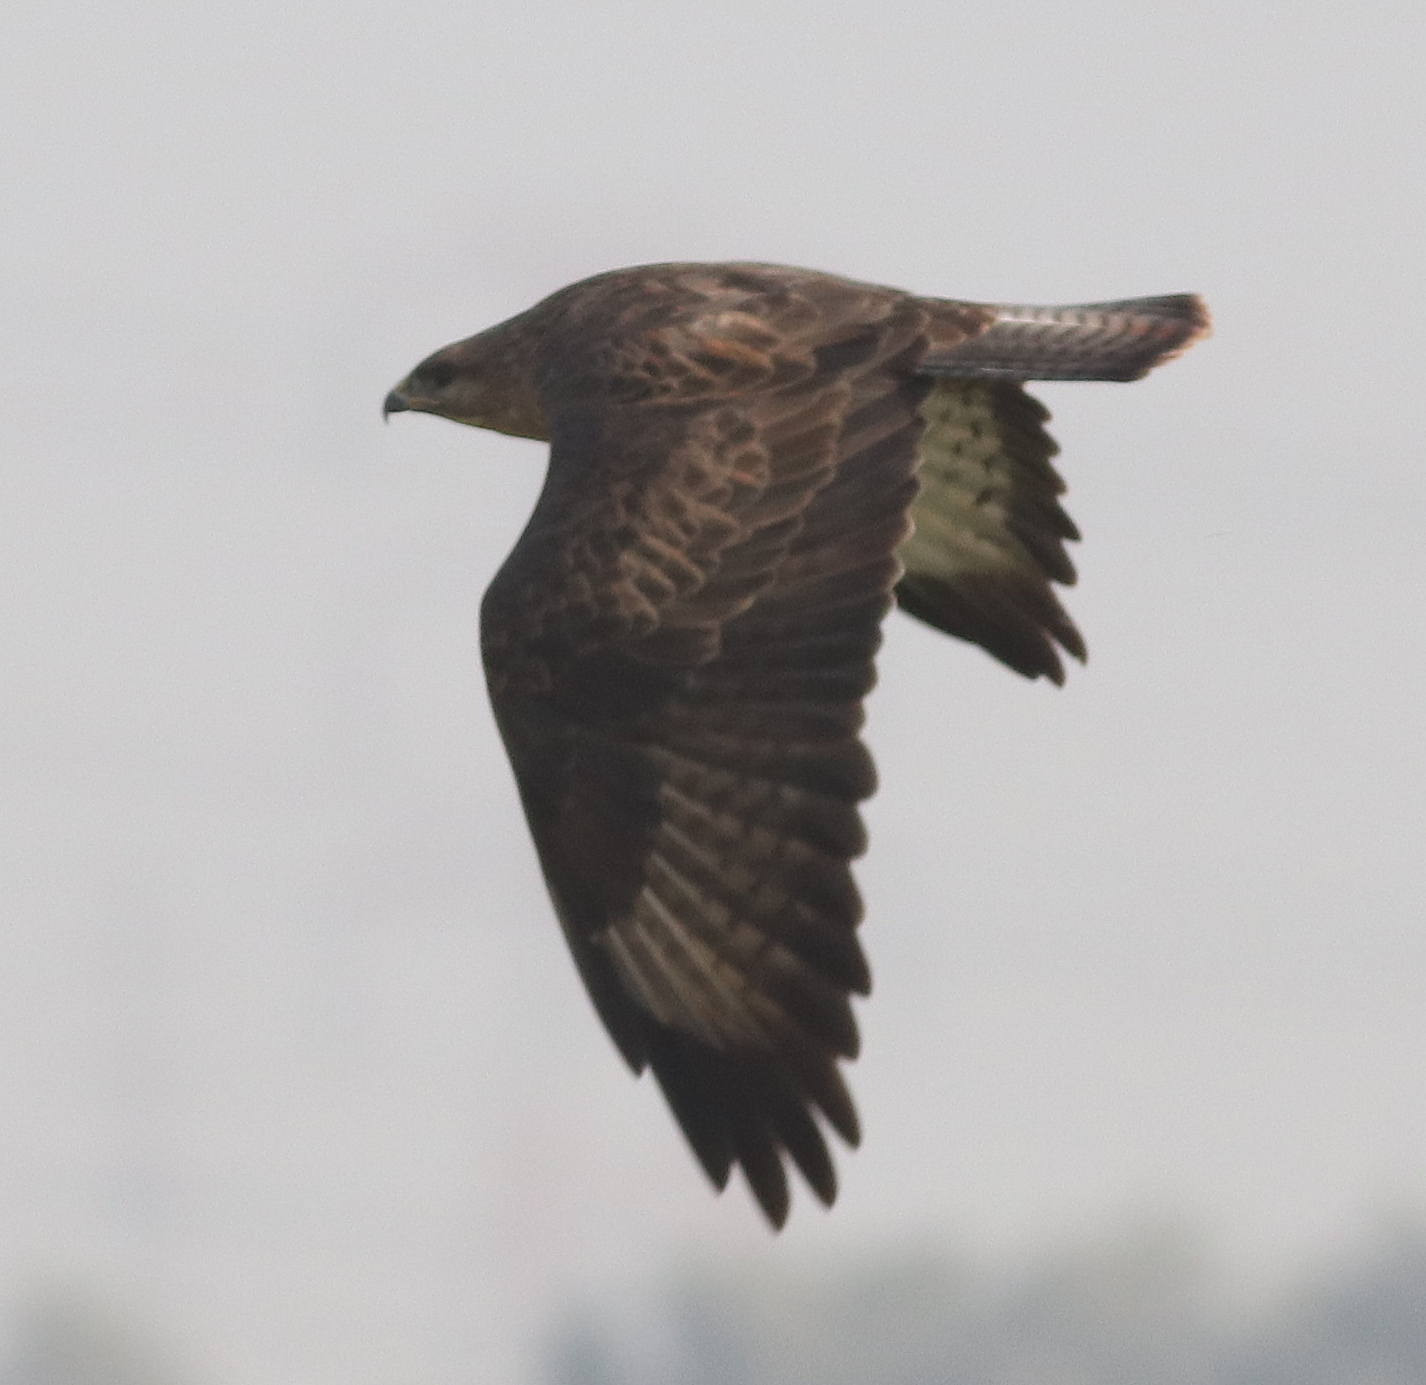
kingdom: Animalia
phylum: Chordata
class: Aves
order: Accipitriformes
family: Accipitridae
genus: Buteo
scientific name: Buteo buteo
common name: Common buzzard
